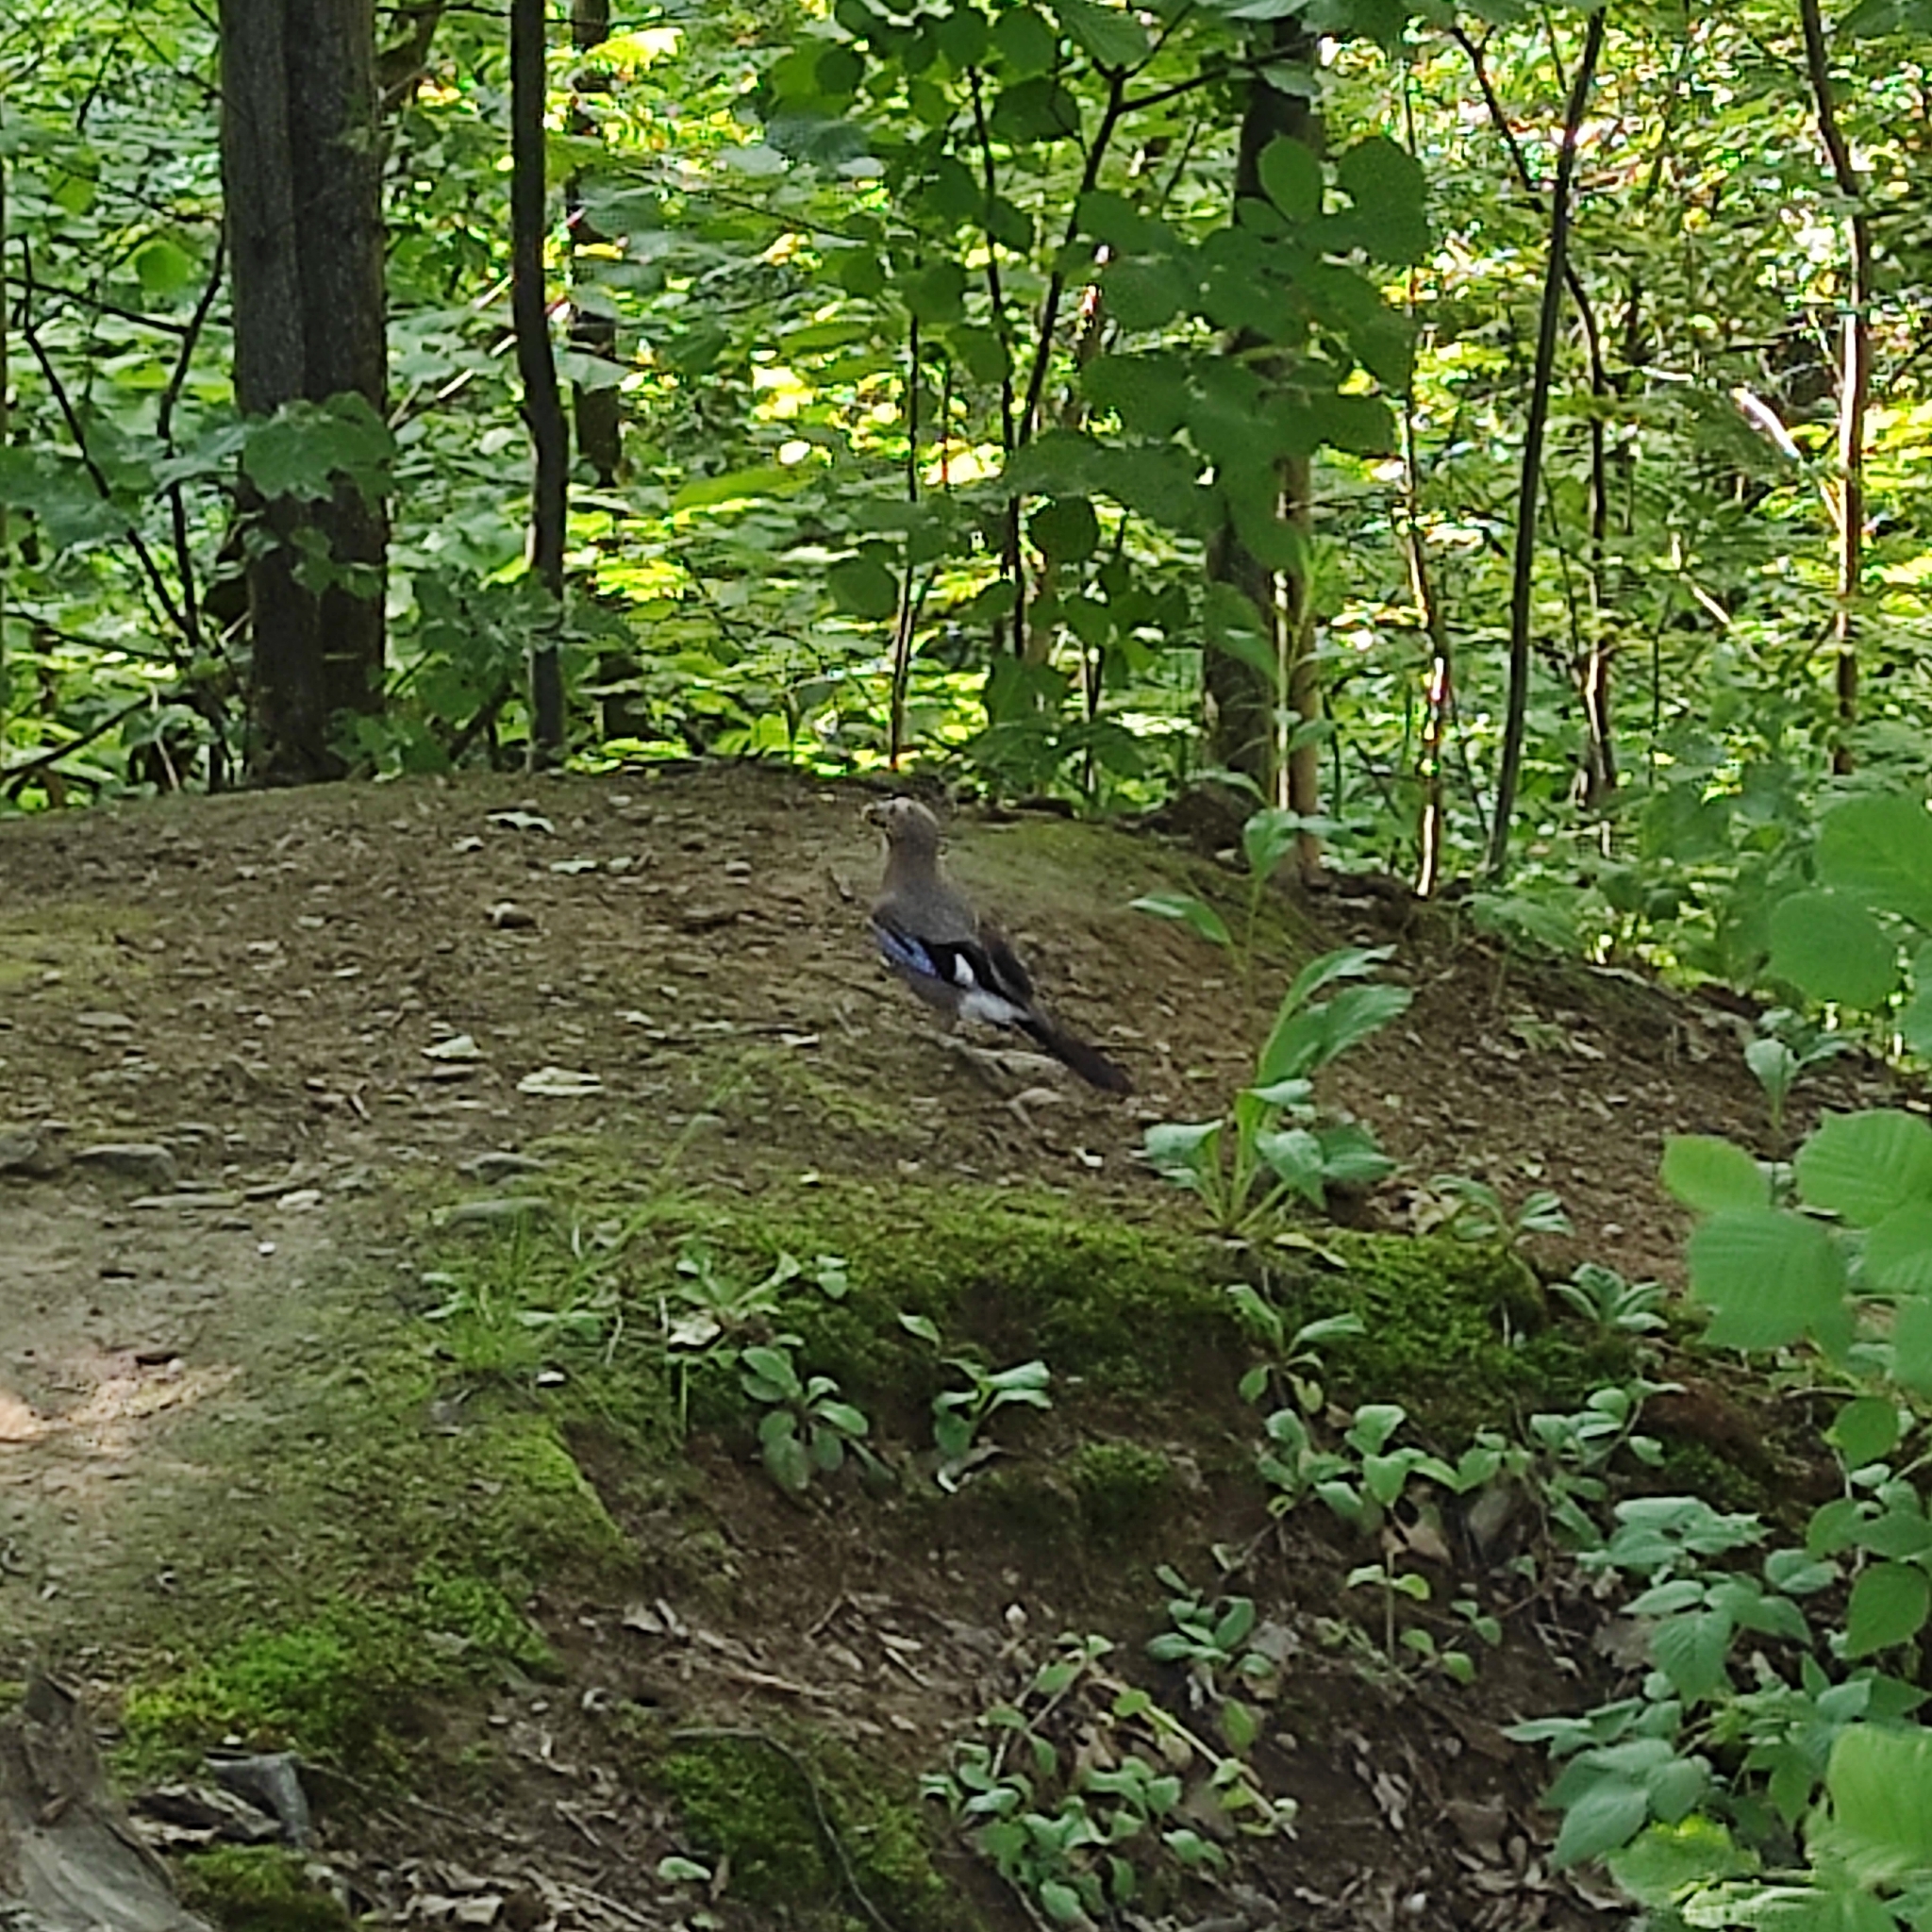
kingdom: Animalia
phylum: Chordata
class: Aves
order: Passeriformes
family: Corvidae
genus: Garrulus
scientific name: Garrulus glandarius
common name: Eurasian jay
